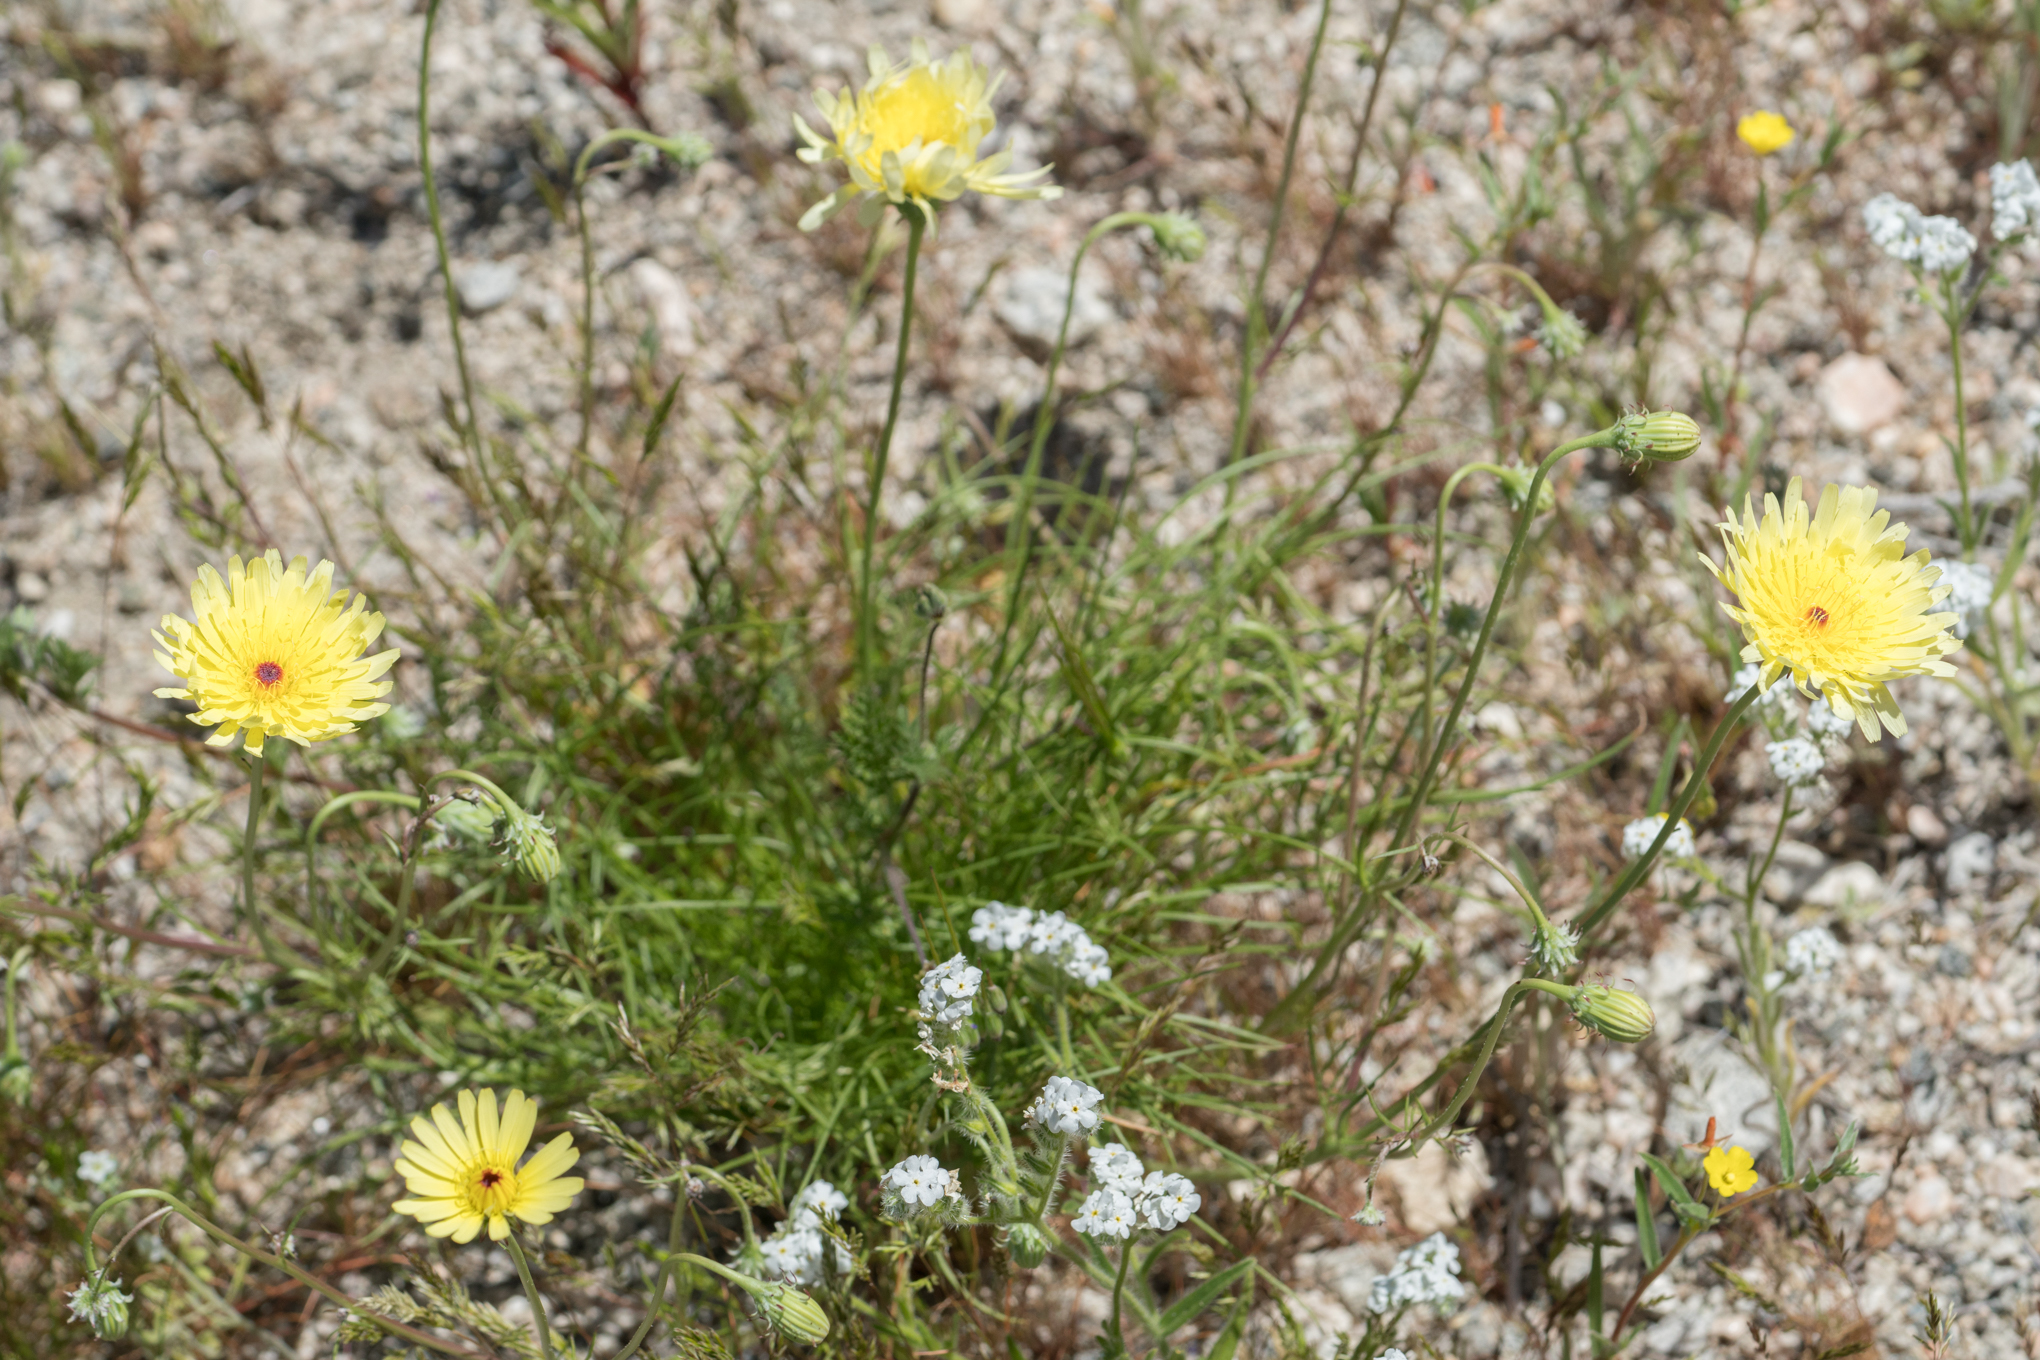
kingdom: Plantae
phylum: Tracheophyta
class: Magnoliopsida
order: Asterales
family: Asteraceae
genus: Malacothrix
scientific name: Malacothrix glabrata
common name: Smooth desert-dandelion
